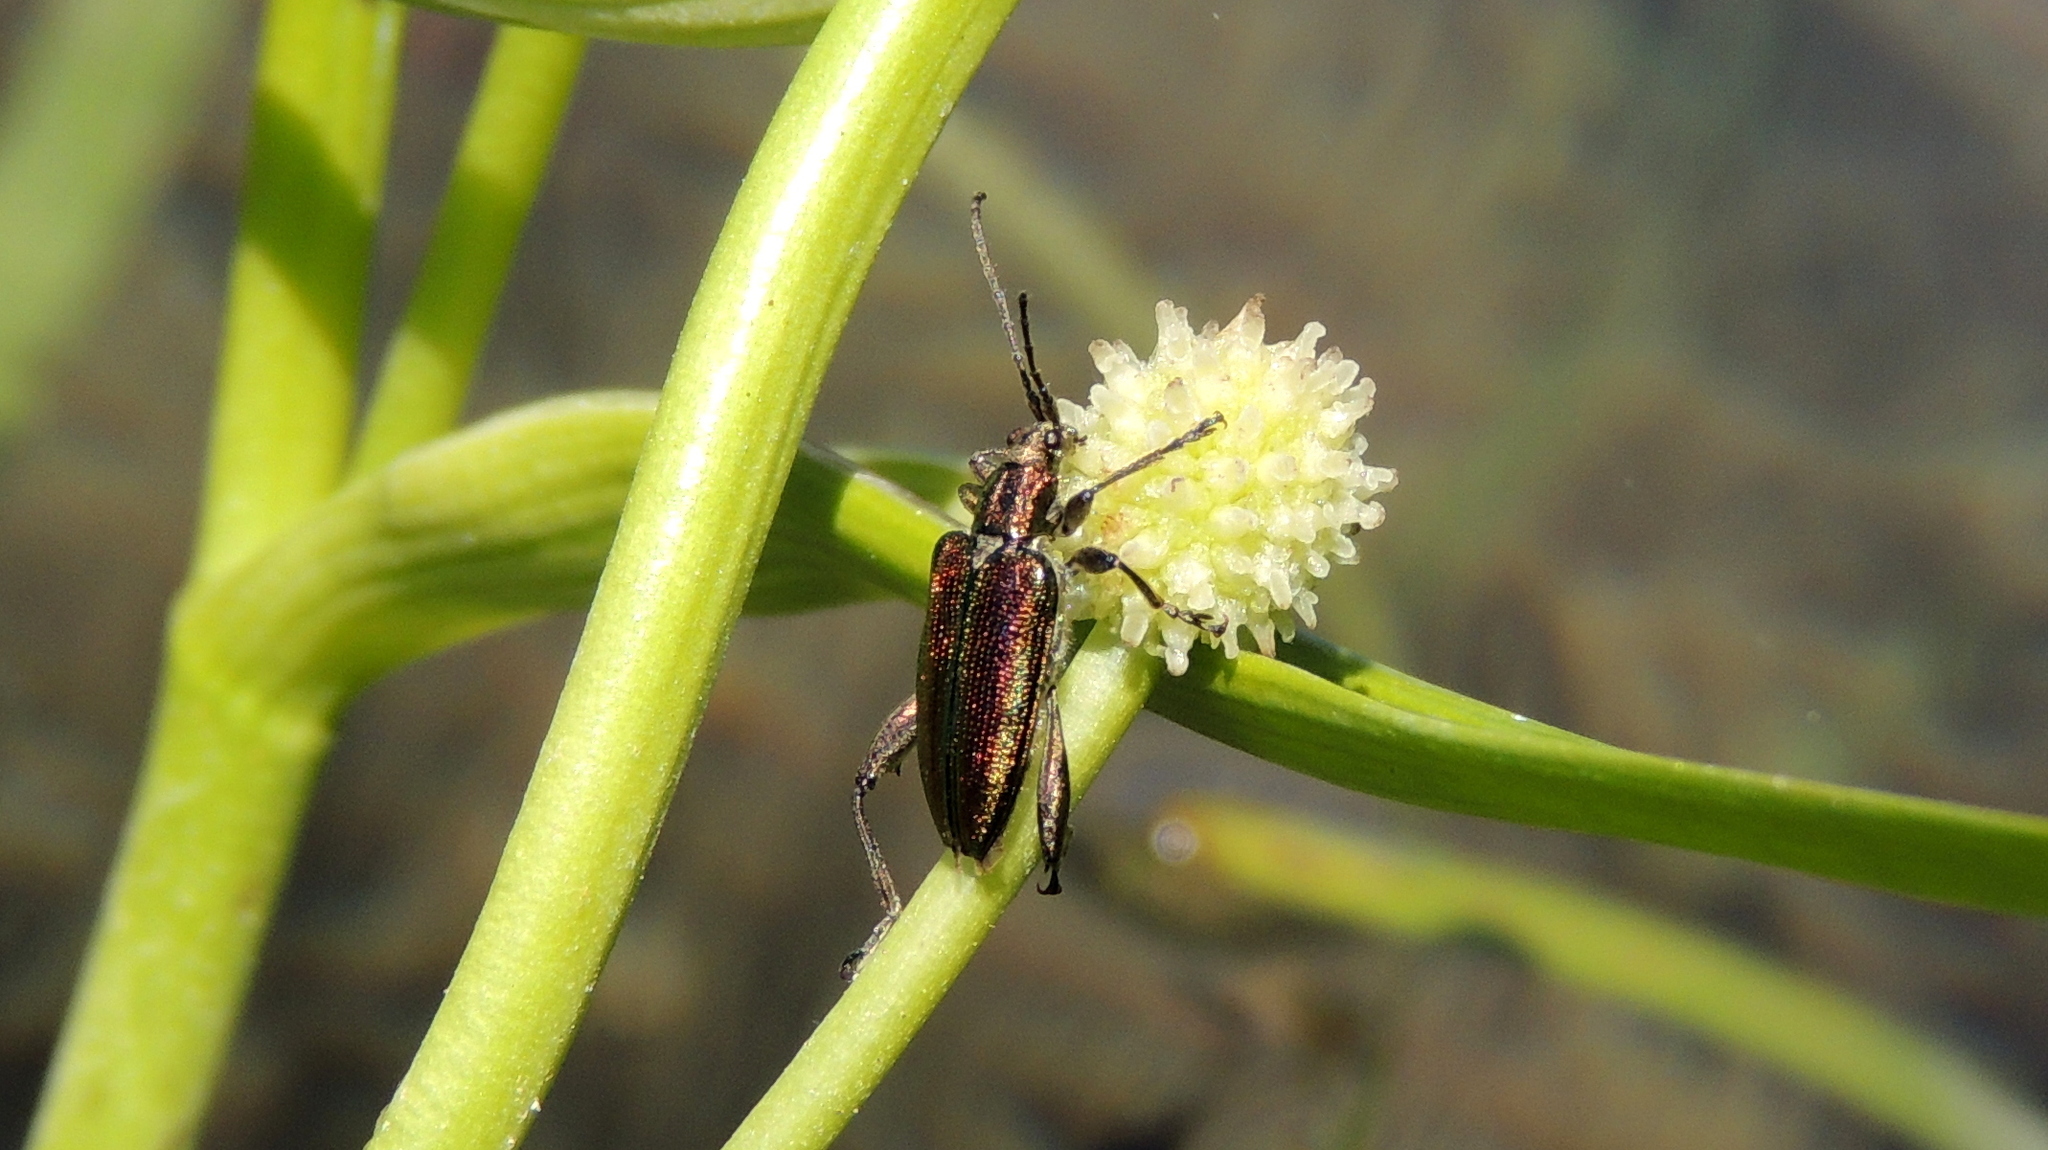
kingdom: Animalia
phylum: Arthropoda
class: Insecta
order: Coleoptera
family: Chrysomelidae
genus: Donacia
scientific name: Donacia aquatica
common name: Zircon reed beetle
